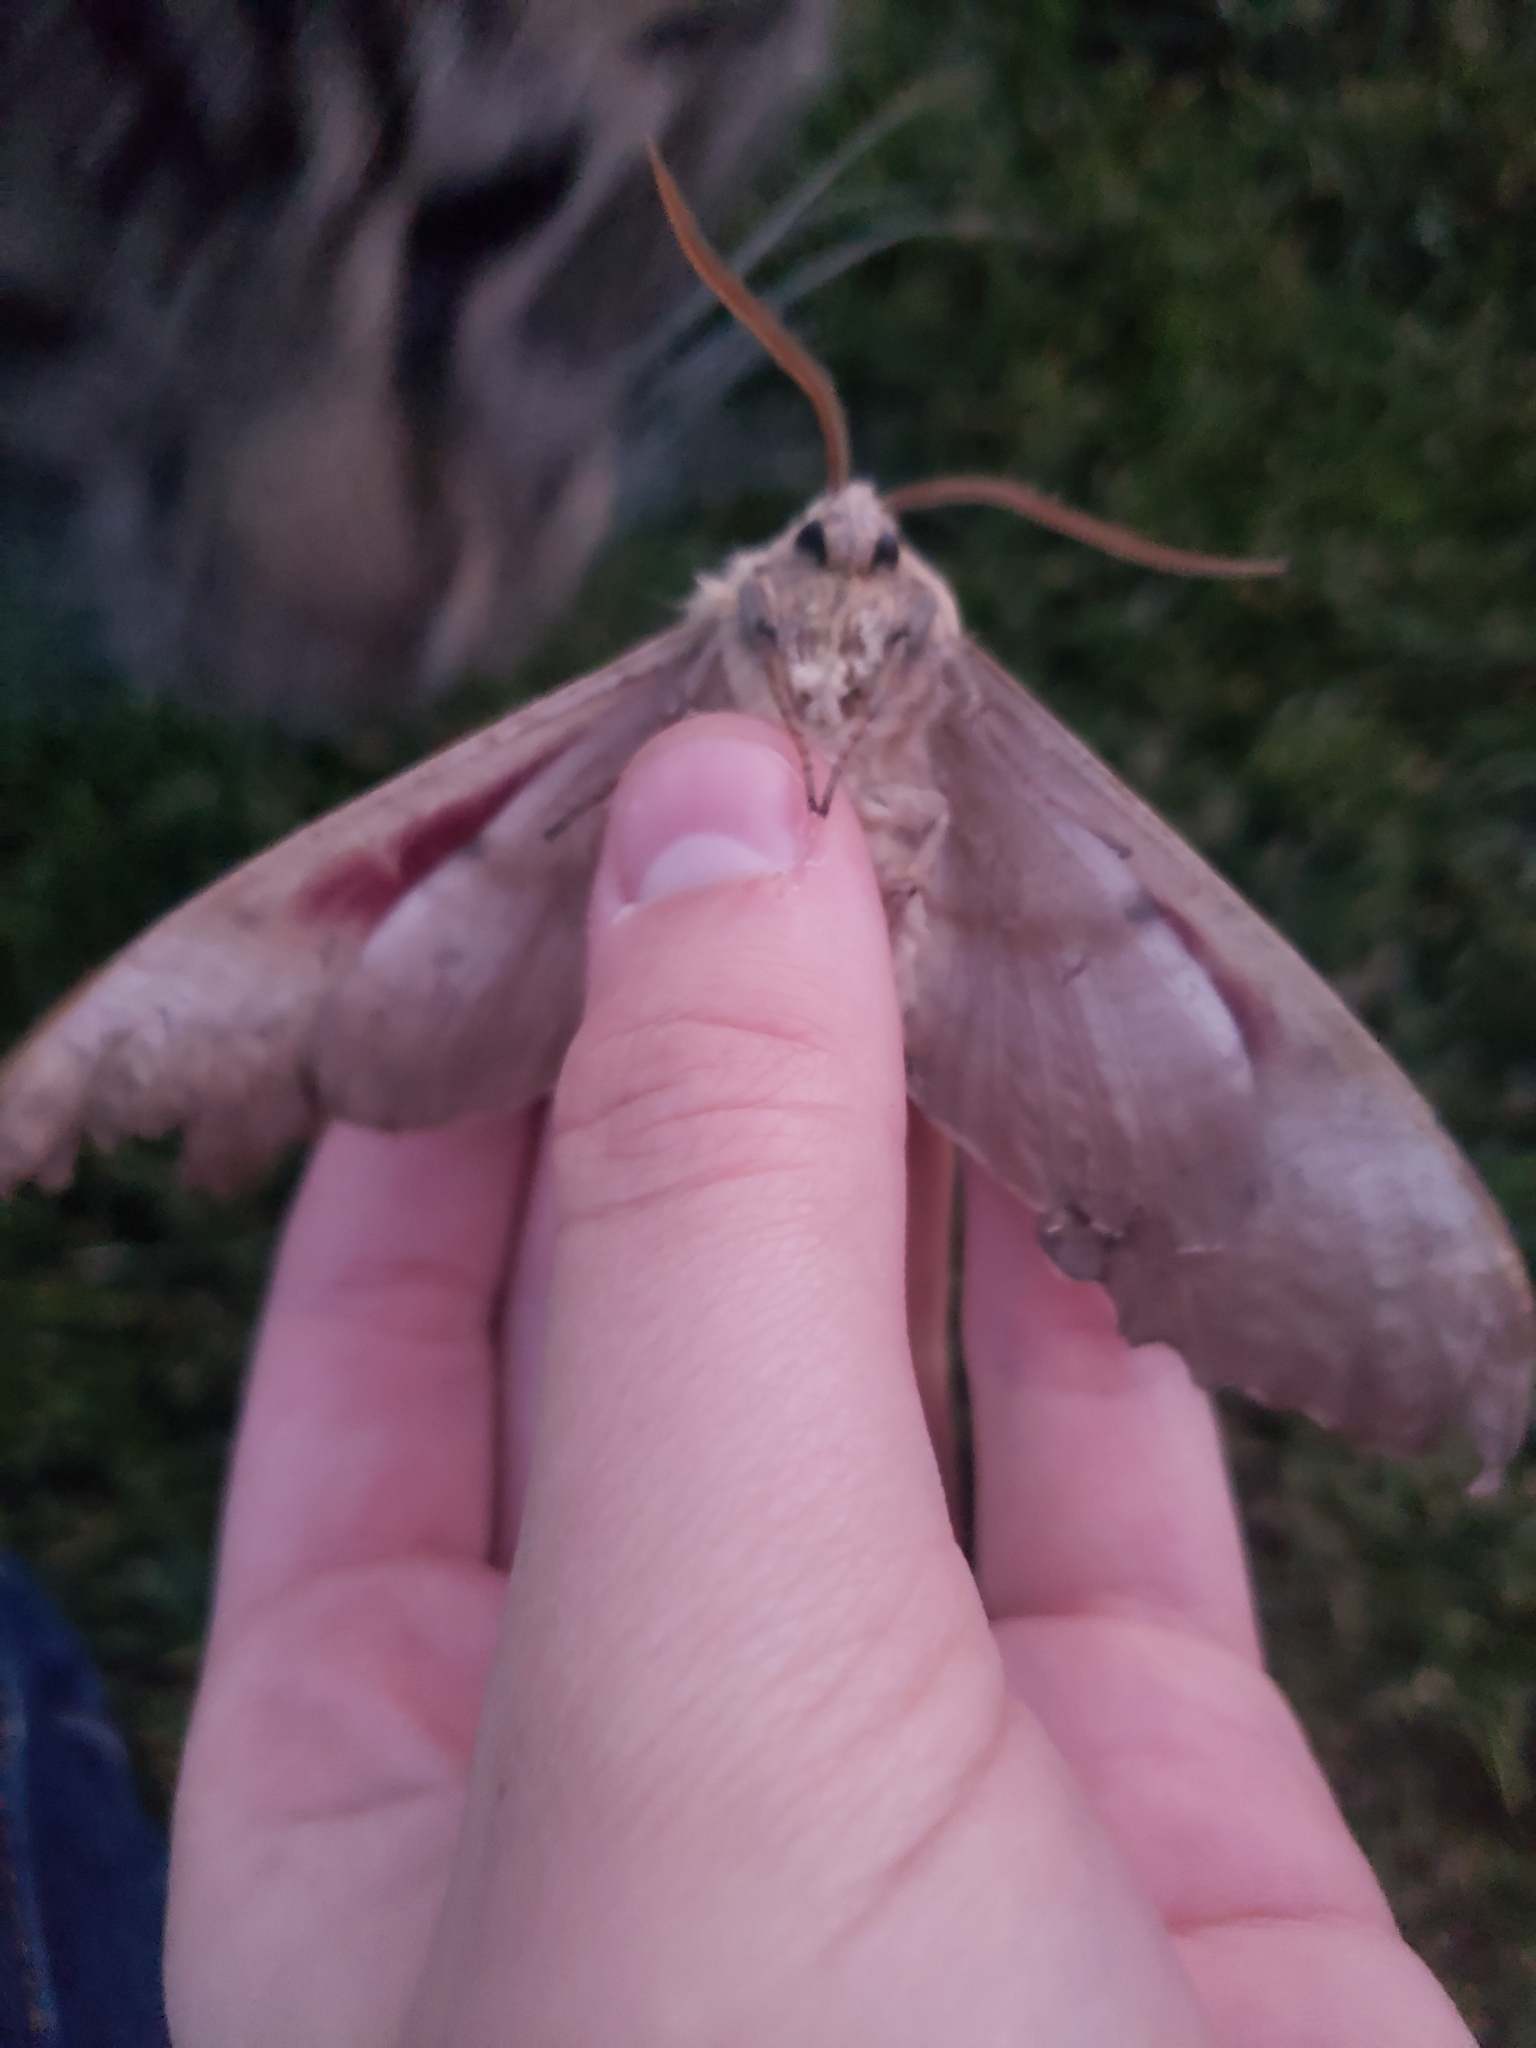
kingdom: Animalia
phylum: Arthropoda
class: Insecta
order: Lepidoptera
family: Sphingidae
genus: Pachysphinx
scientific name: Pachysphinx occidentalis
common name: Western poplar sphinx
